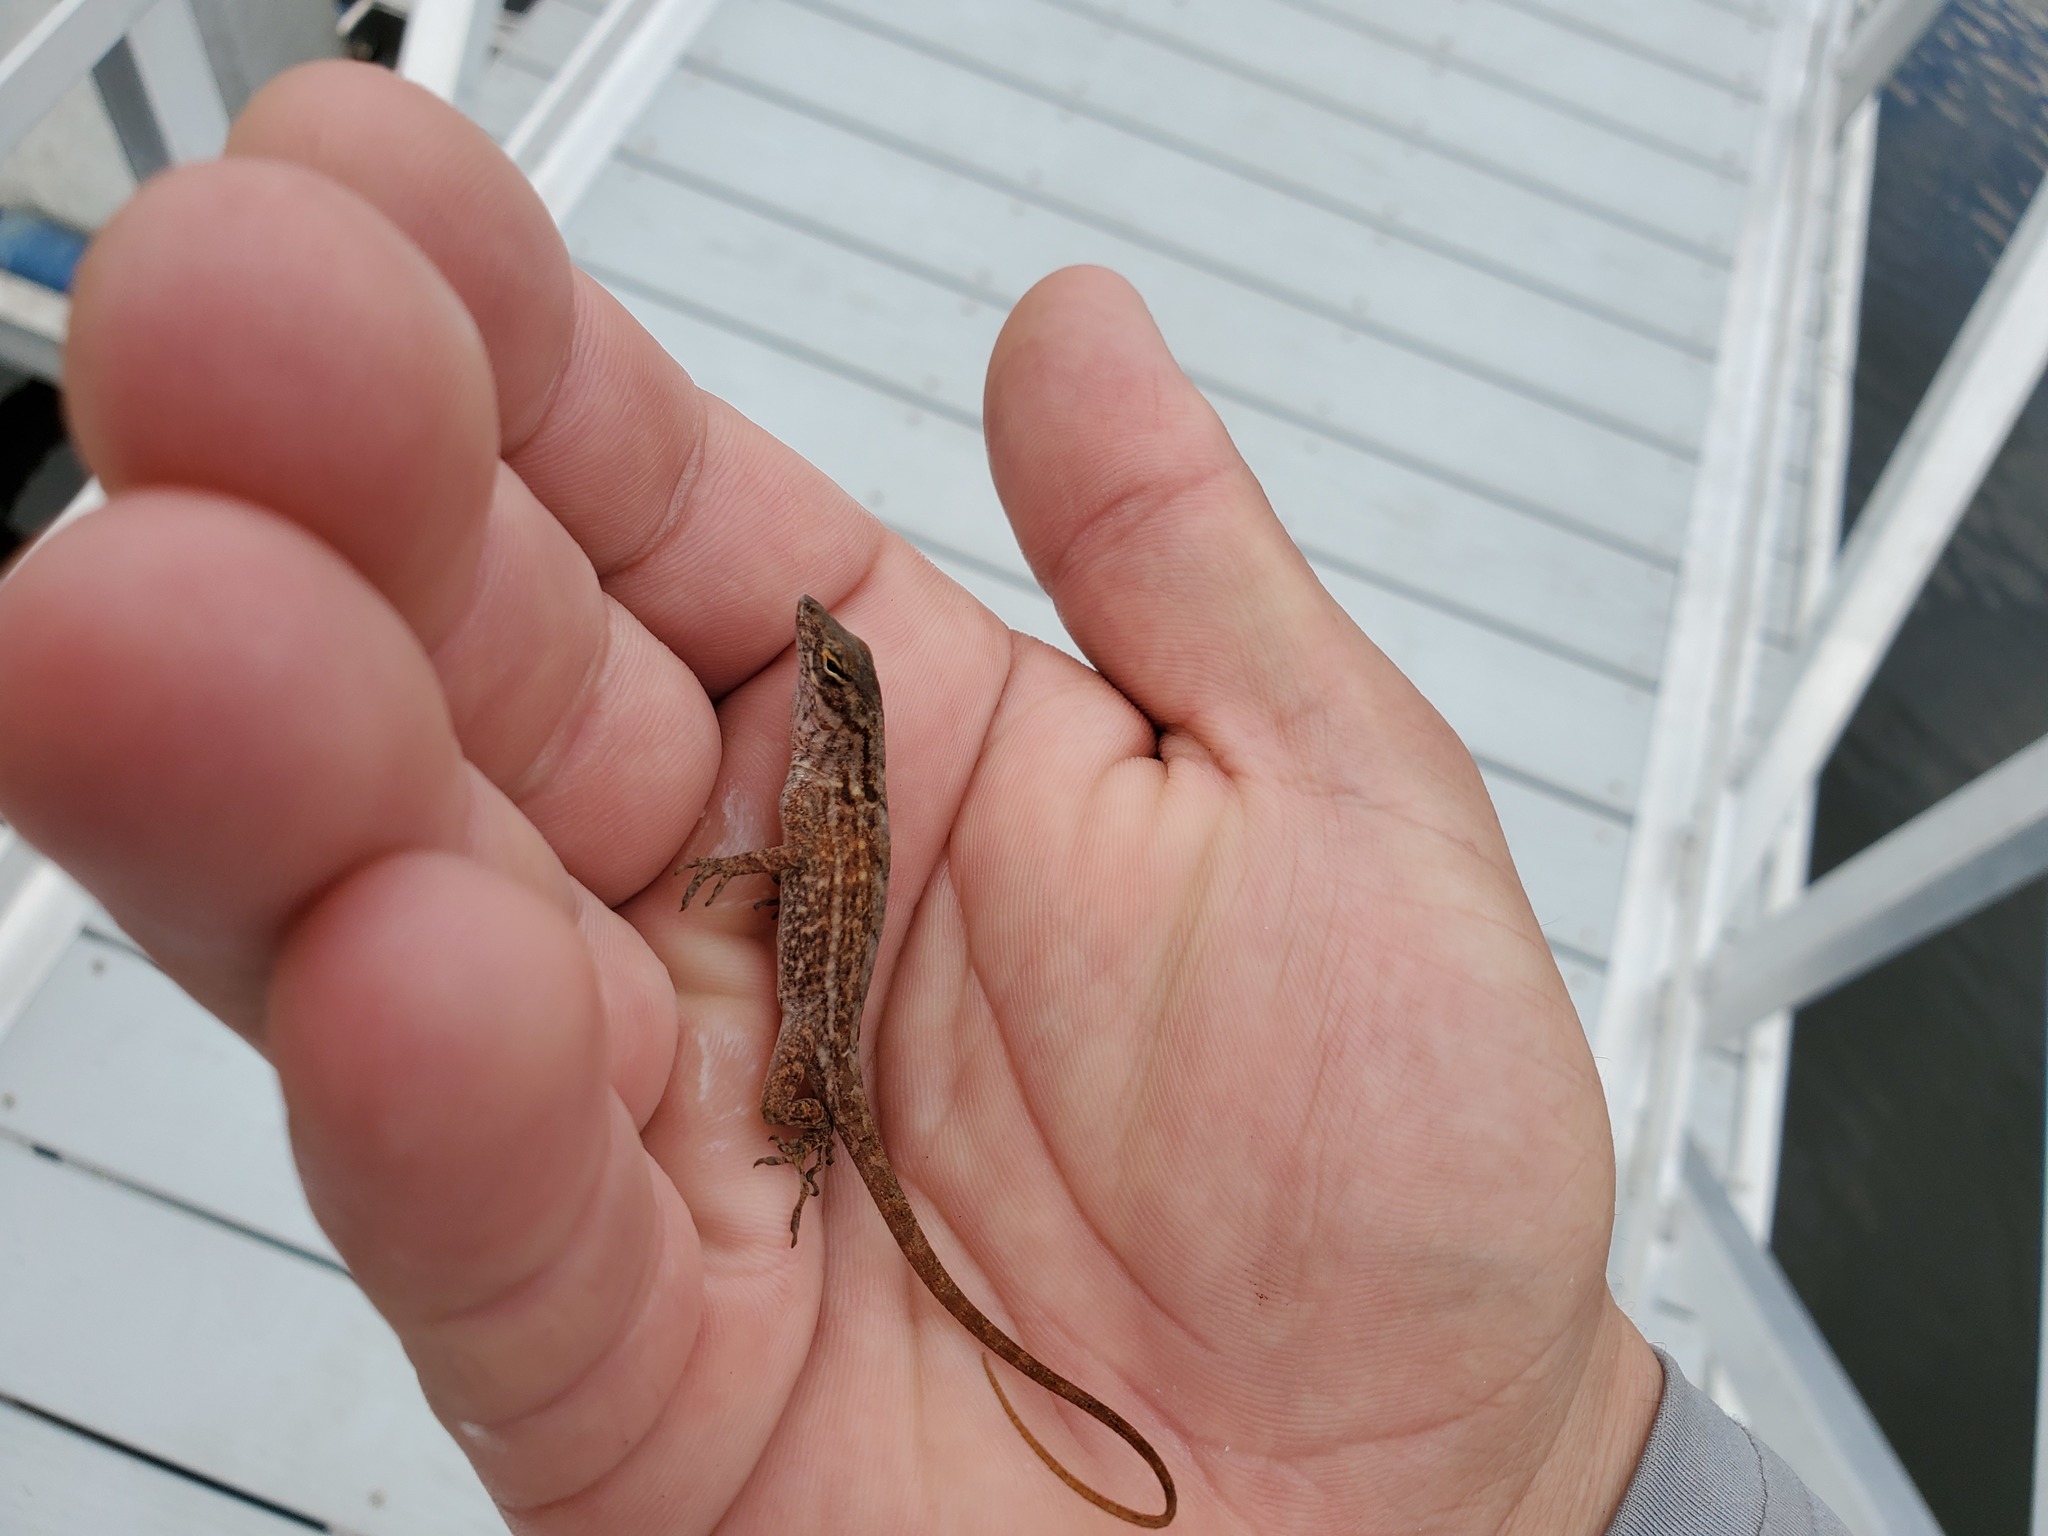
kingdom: Animalia
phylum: Chordata
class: Squamata
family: Dactyloidae
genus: Anolis
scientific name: Anolis sagrei
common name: Brown anole
